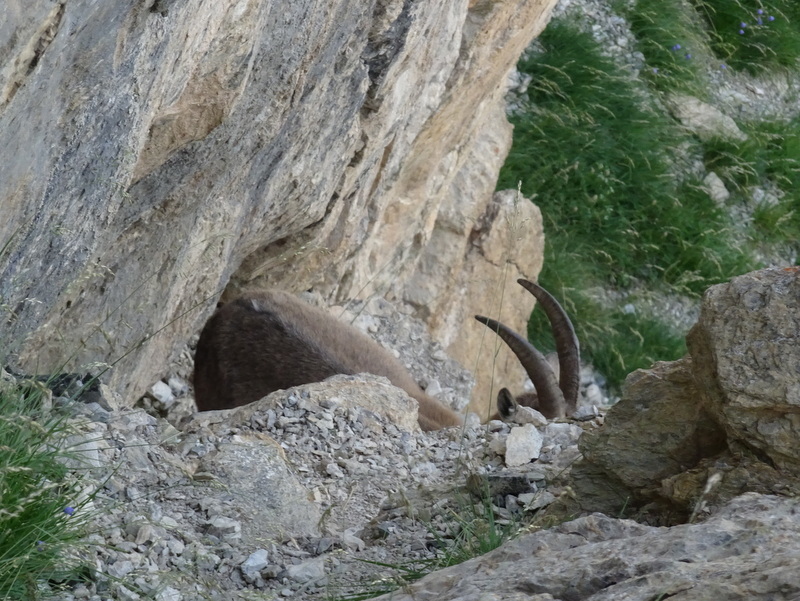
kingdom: Animalia
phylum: Chordata
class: Mammalia
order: Artiodactyla
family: Bovidae
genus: Capra
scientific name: Capra ibex
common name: Alpine ibex
